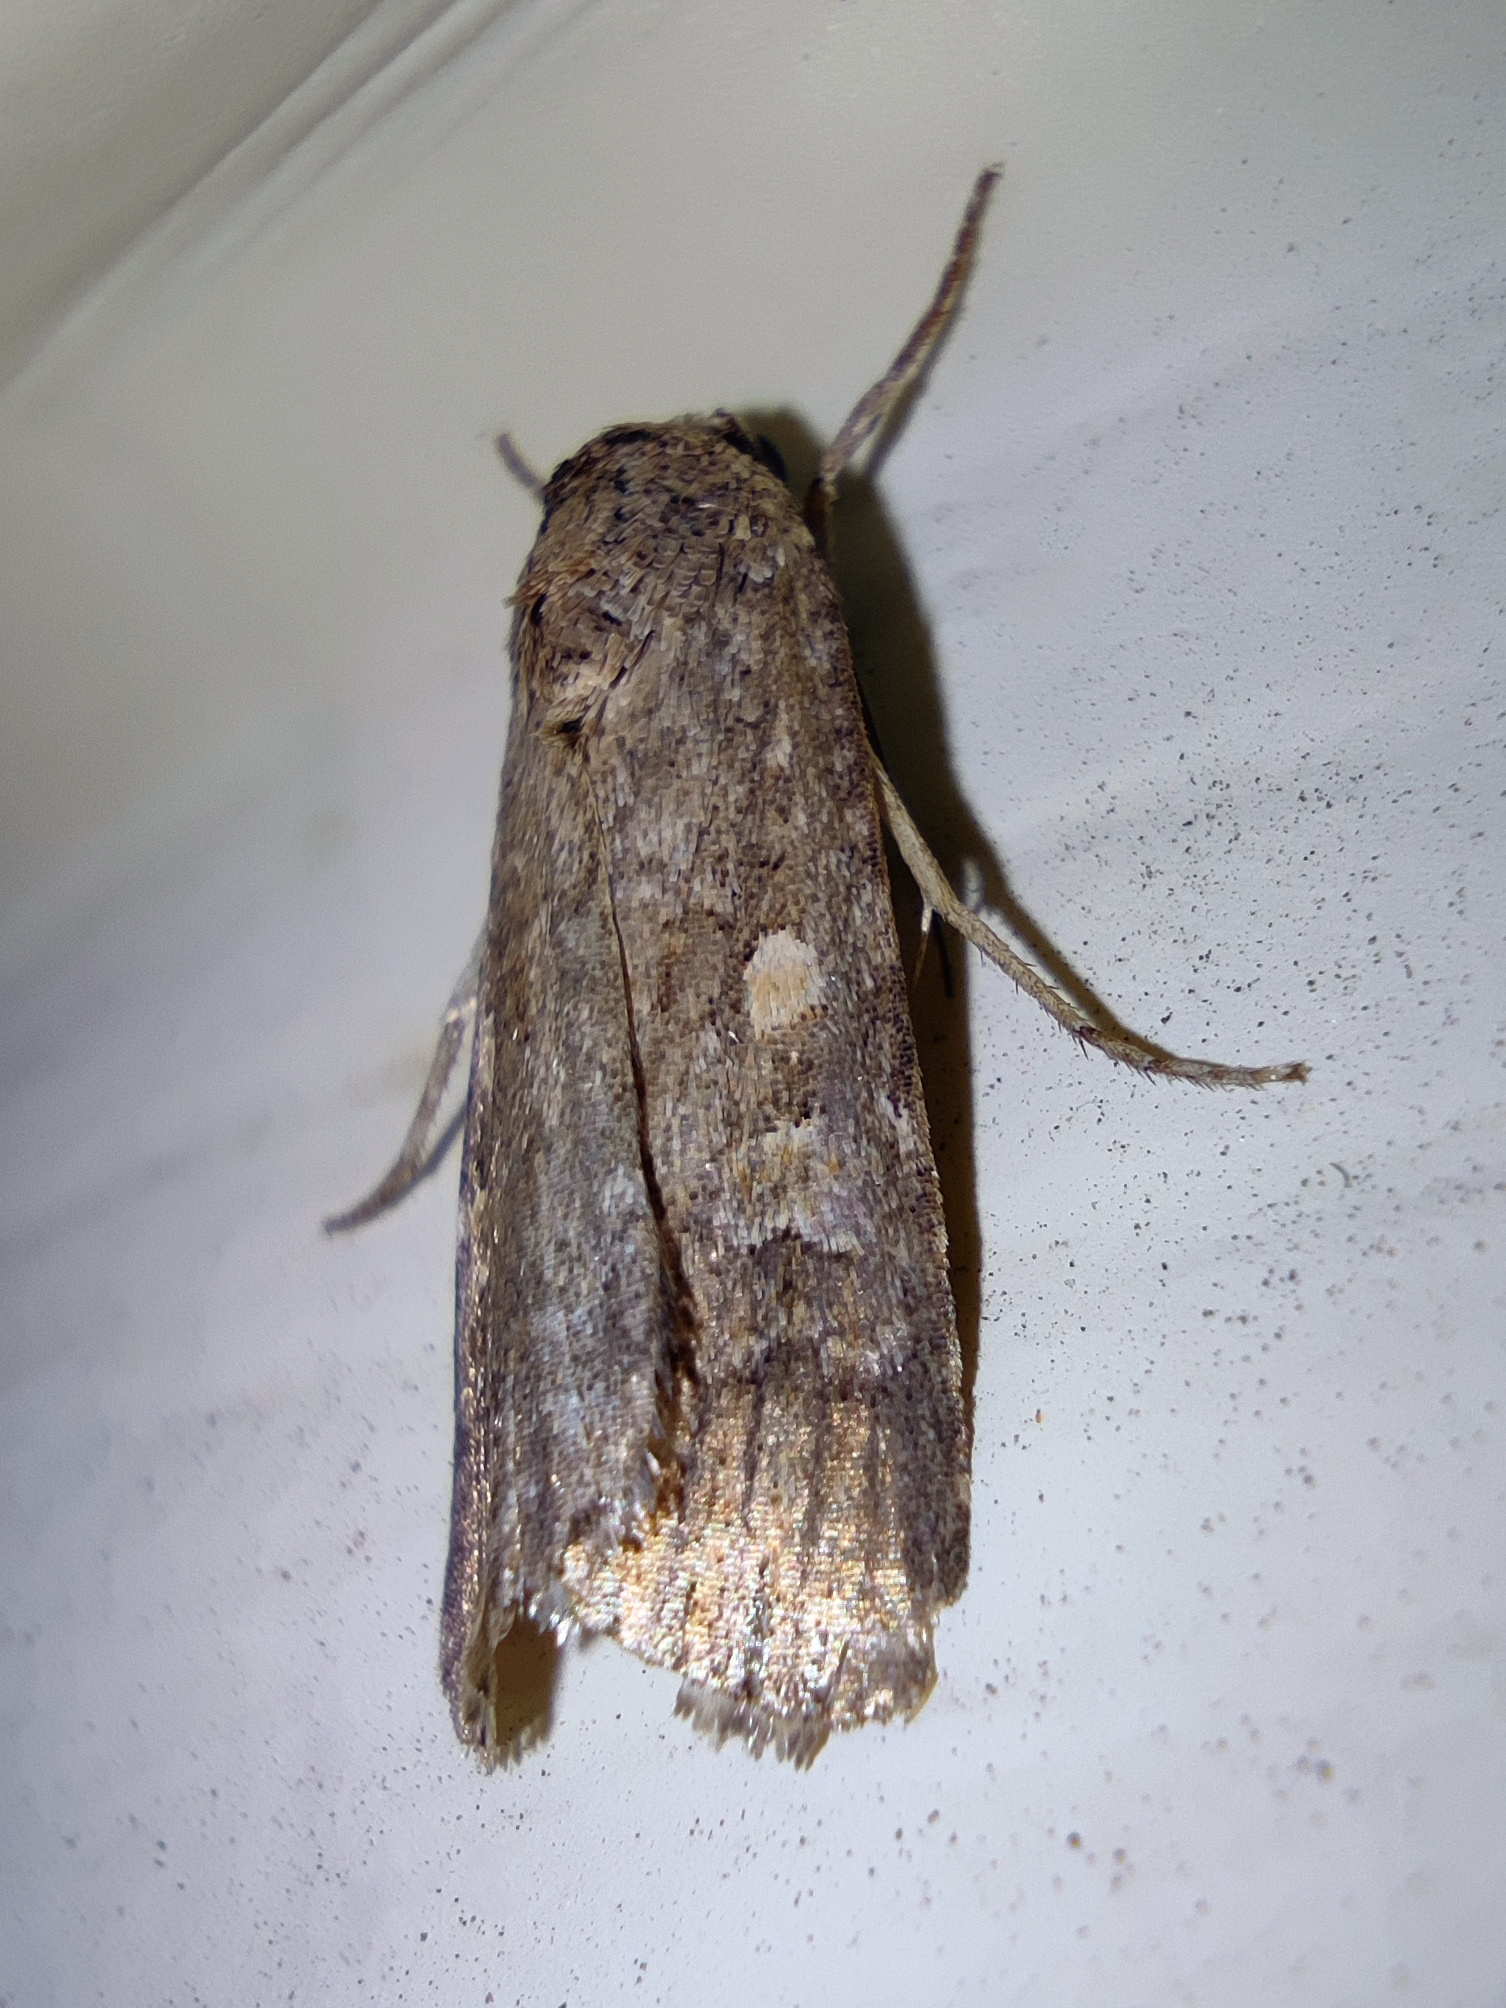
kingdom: Animalia
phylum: Arthropoda
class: Insecta
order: Lepidoptera
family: Noctuidae
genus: Spodoptera
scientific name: Spodoptera exigua
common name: Beet armyworm
